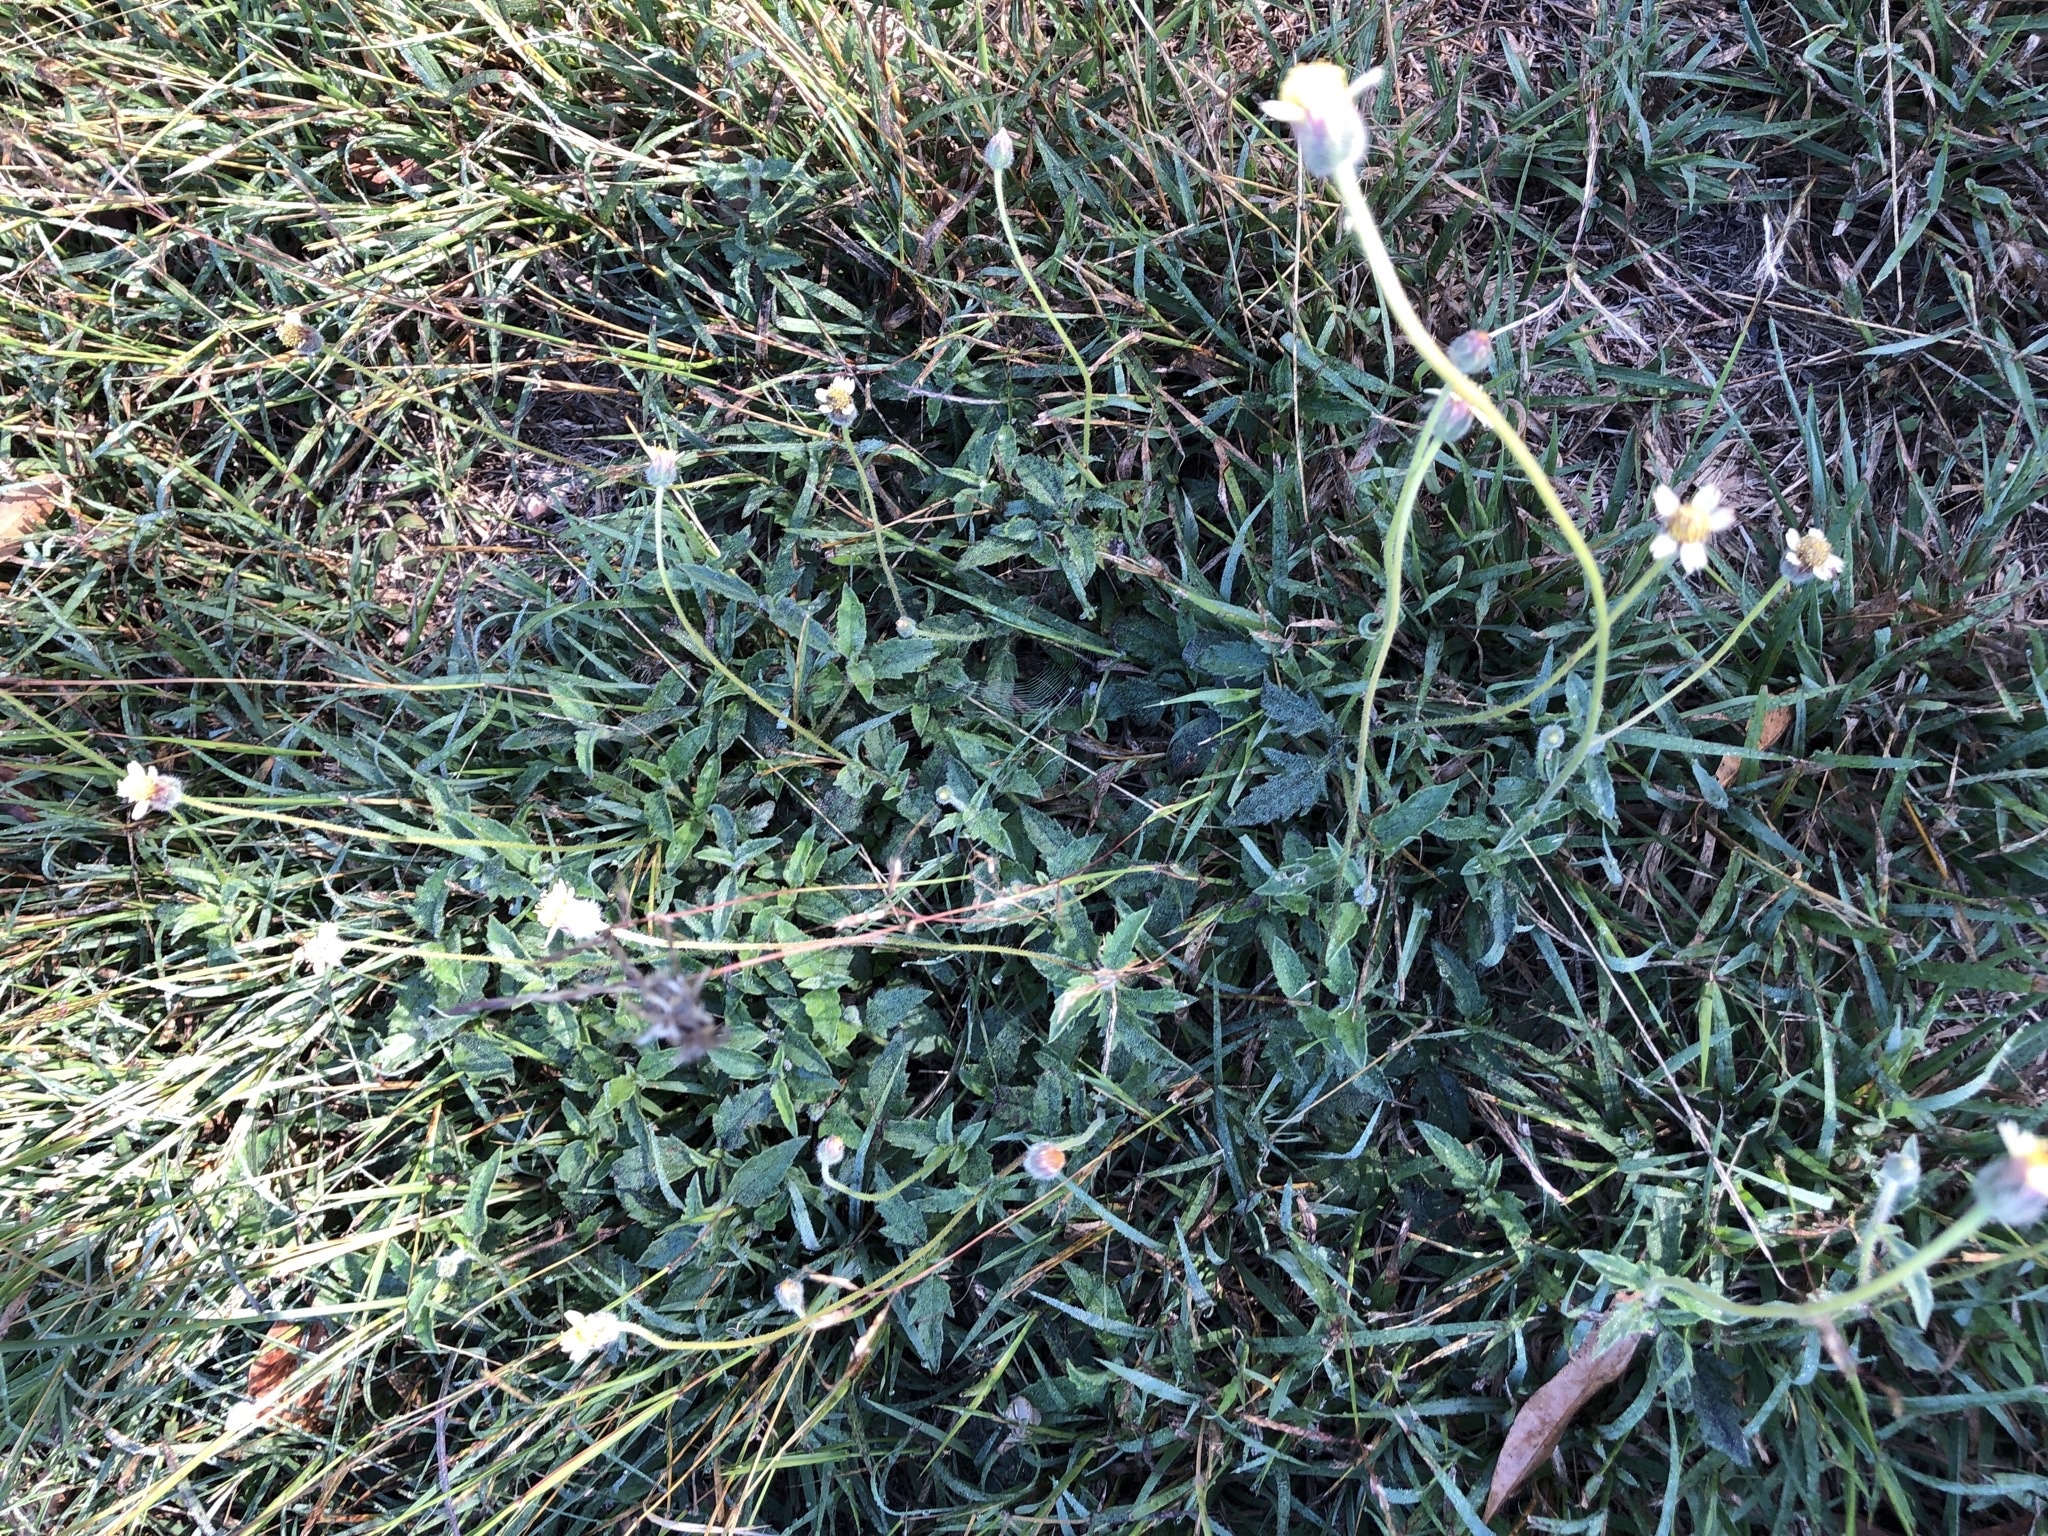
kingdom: Plantae
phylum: Tracheophyta
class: Magnoliopsida
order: Asterales
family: Asteraceae
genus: Tridax
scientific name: Tridax procumbens
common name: Coatbuttons
